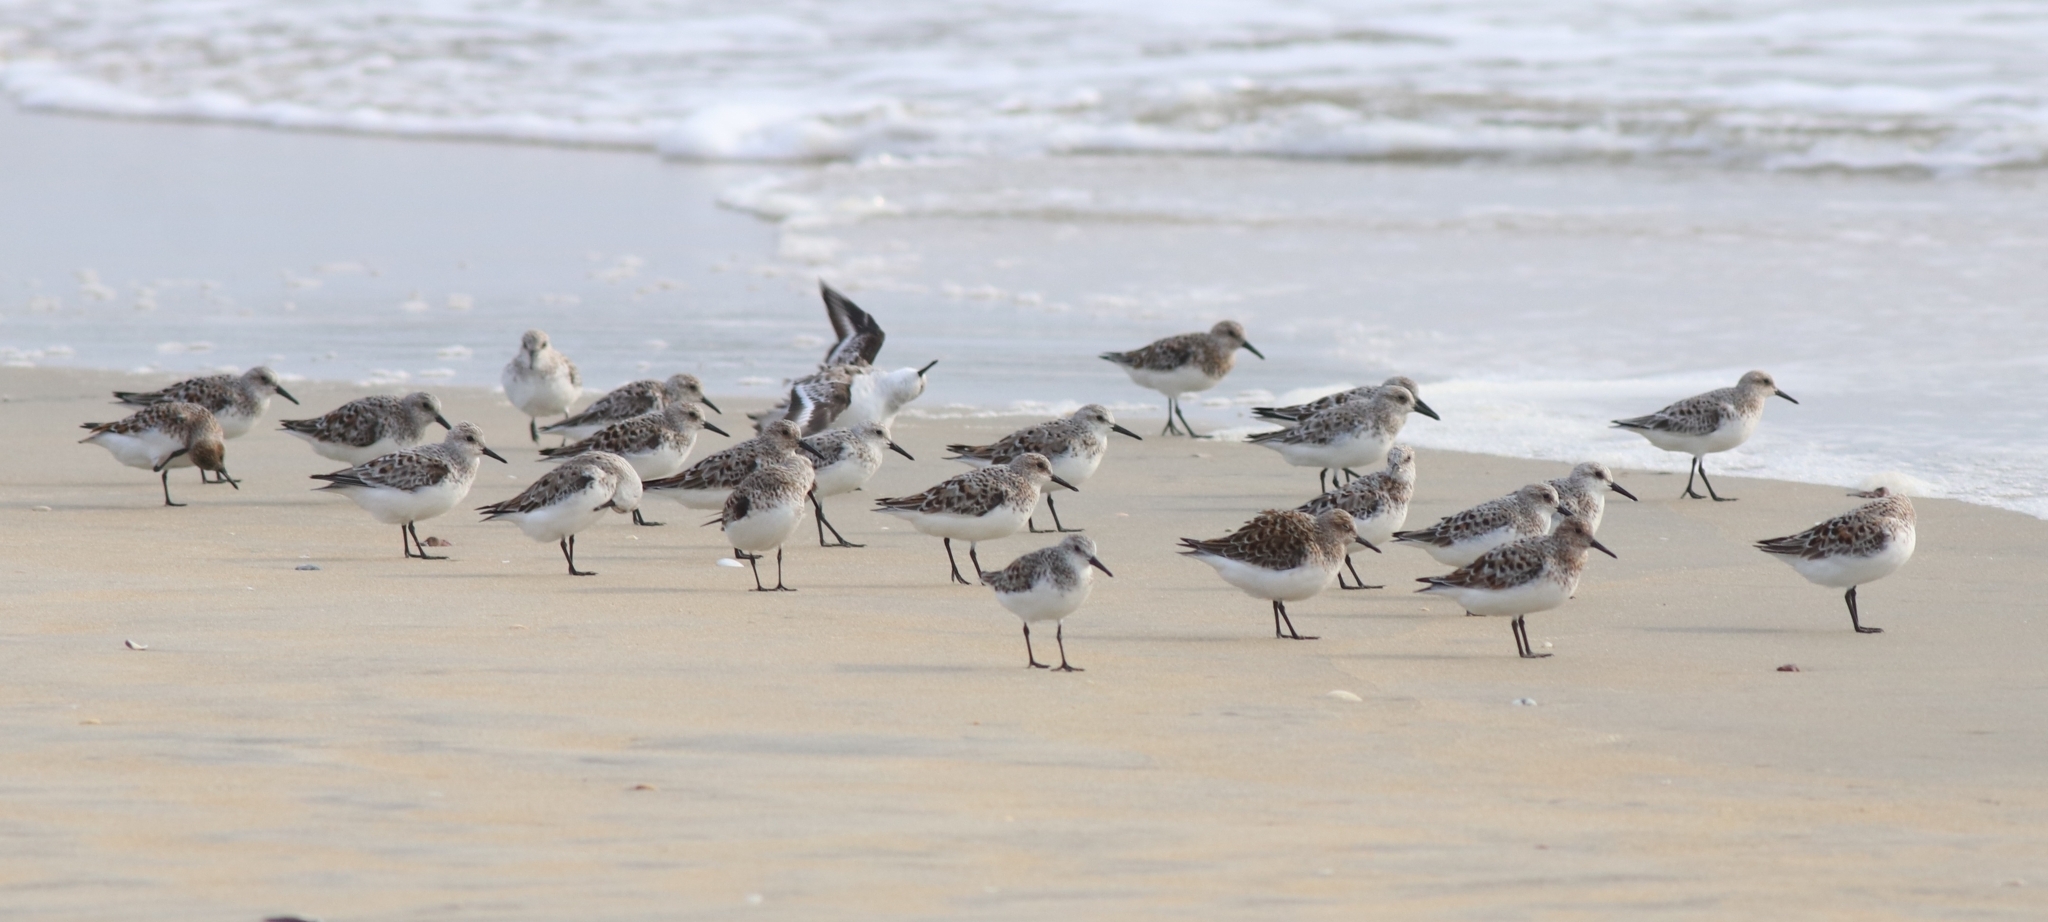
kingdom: Animalia
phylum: Chordata
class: Aves
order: Charadriiformes
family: Scolopacidae
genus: Calidris
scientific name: Calidris alba
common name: Sanderling
